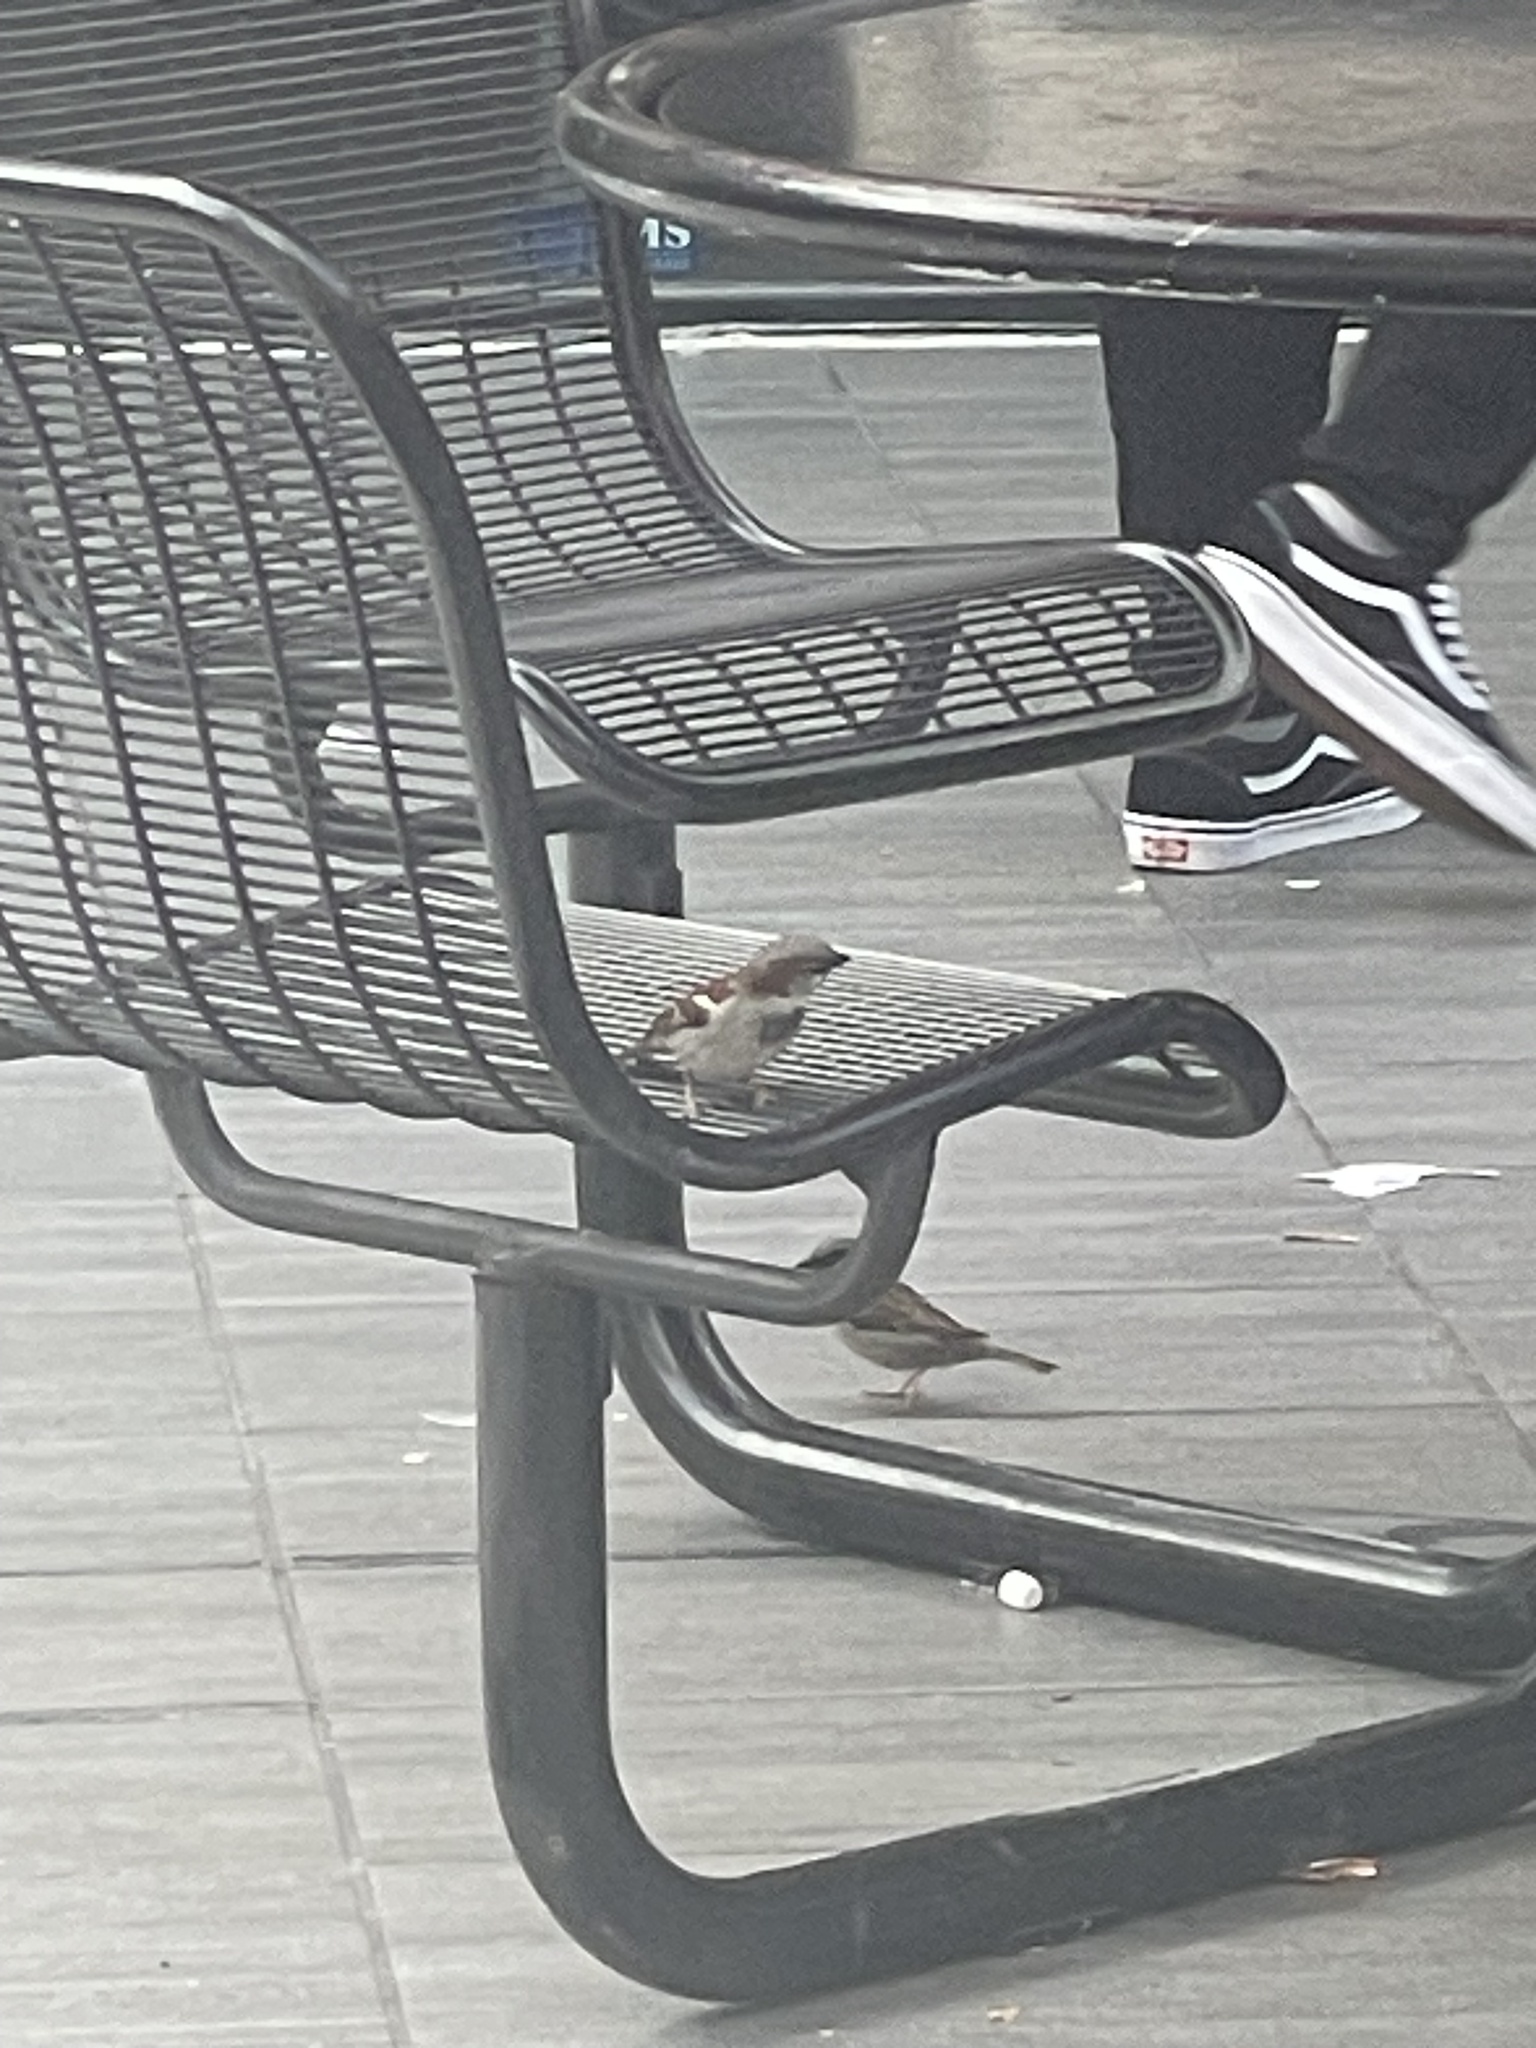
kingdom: Animalia
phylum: Chordata
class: Aves
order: Passeriformes
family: Passeridae
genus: Passer
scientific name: Passer domesticus
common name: House sparrow
